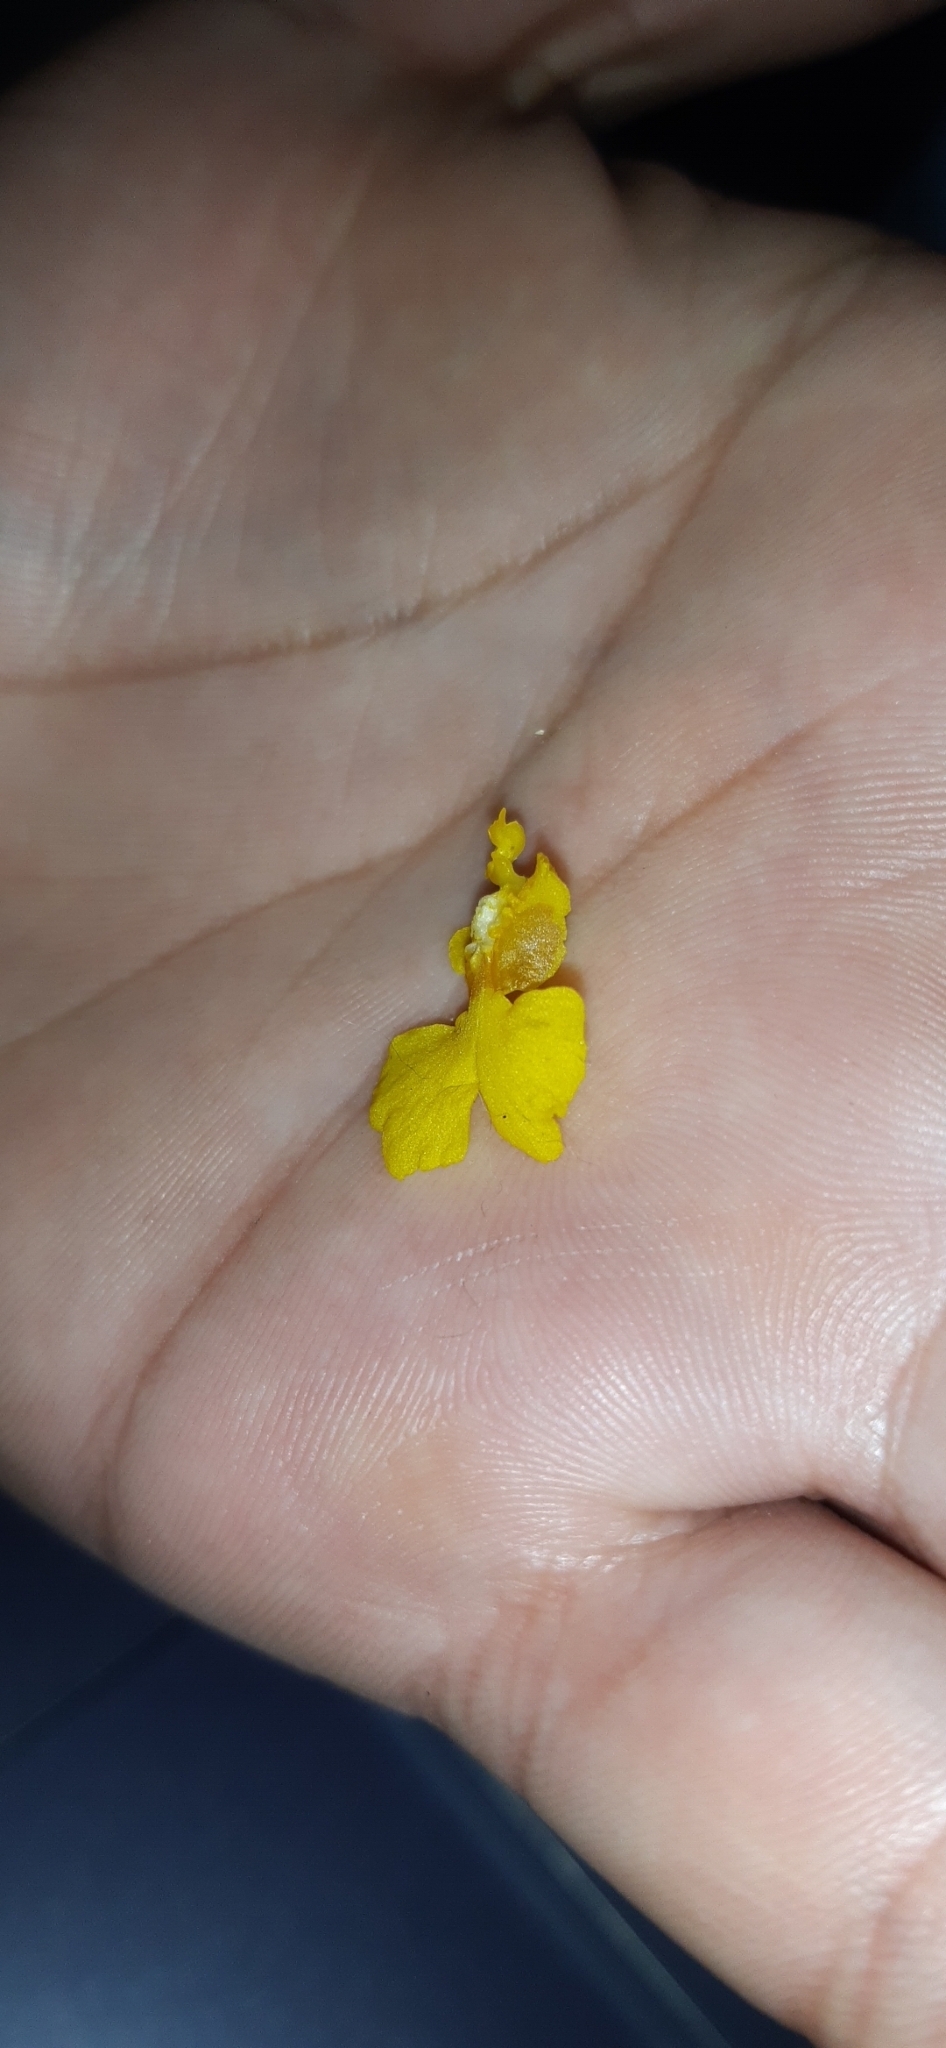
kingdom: Plantae
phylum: Tracheophyta
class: Liliopsida
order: Asparagales
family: Orchidaceae
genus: Oncidium
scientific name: Oncidium panchrysum
